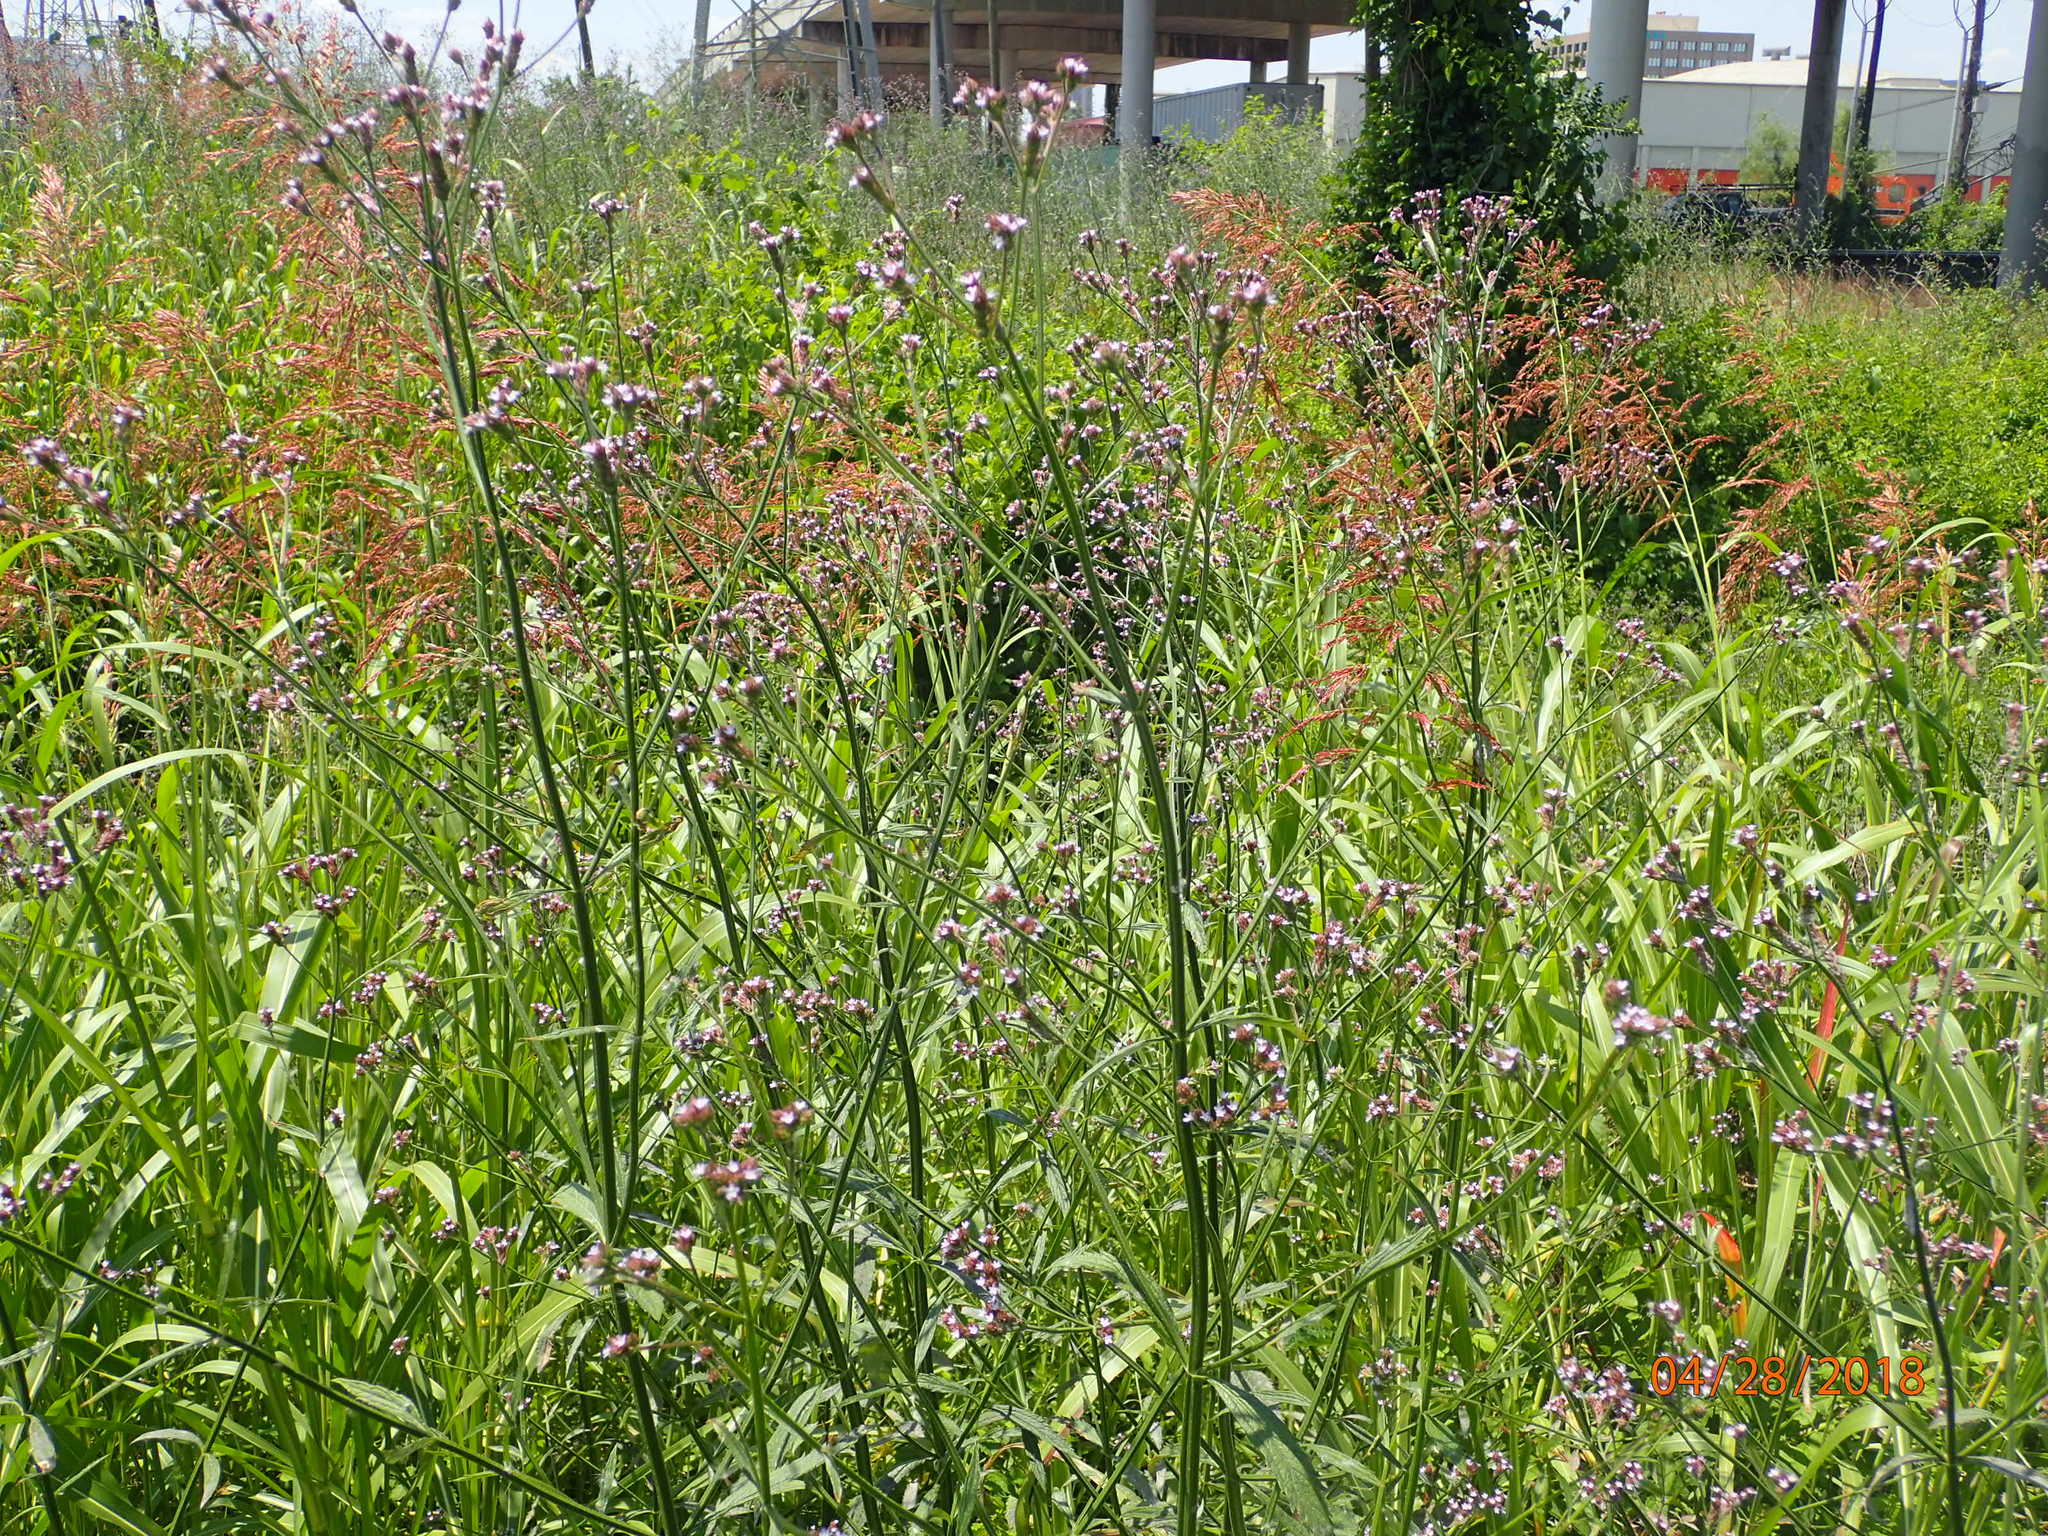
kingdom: Plantae
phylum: Tracheophyta
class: Magnoliopsida
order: Lamiales
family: Verbenaceae
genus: Verbena
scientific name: Verbena brasiliensis
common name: Brazilian vervain
